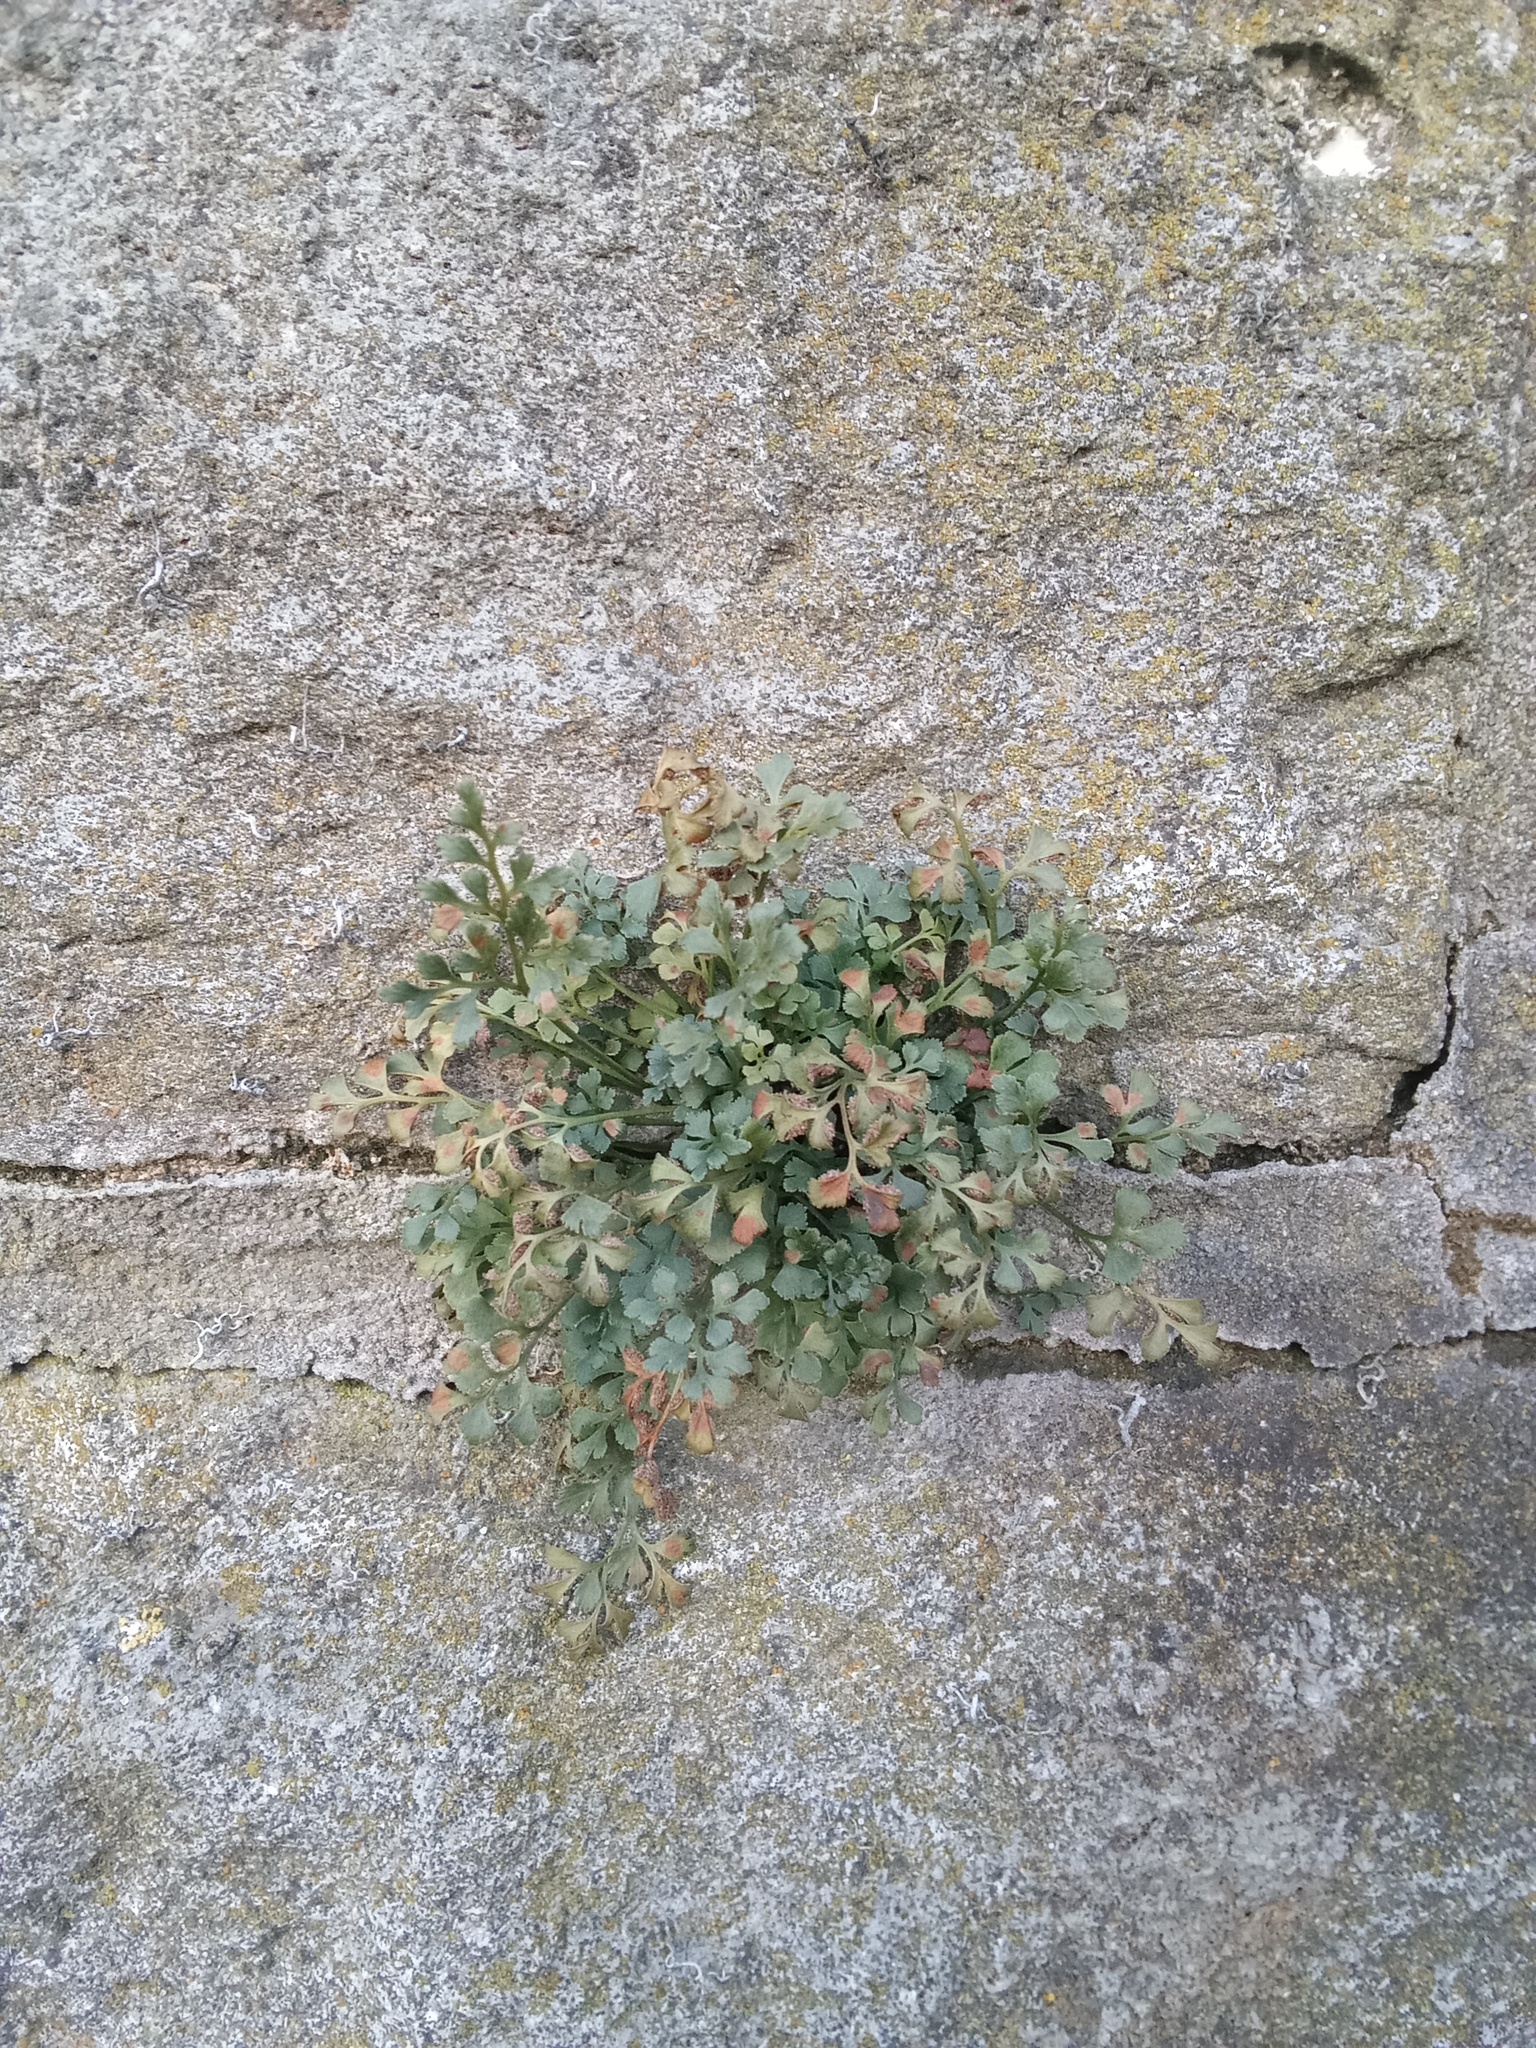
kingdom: Plantae
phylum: Tracheophyta
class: Polypodiopsida
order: Polypodiales
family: Aspleniaceae
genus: Asplenium
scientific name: Asplenium ruta-muraria
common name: Wall-rue
